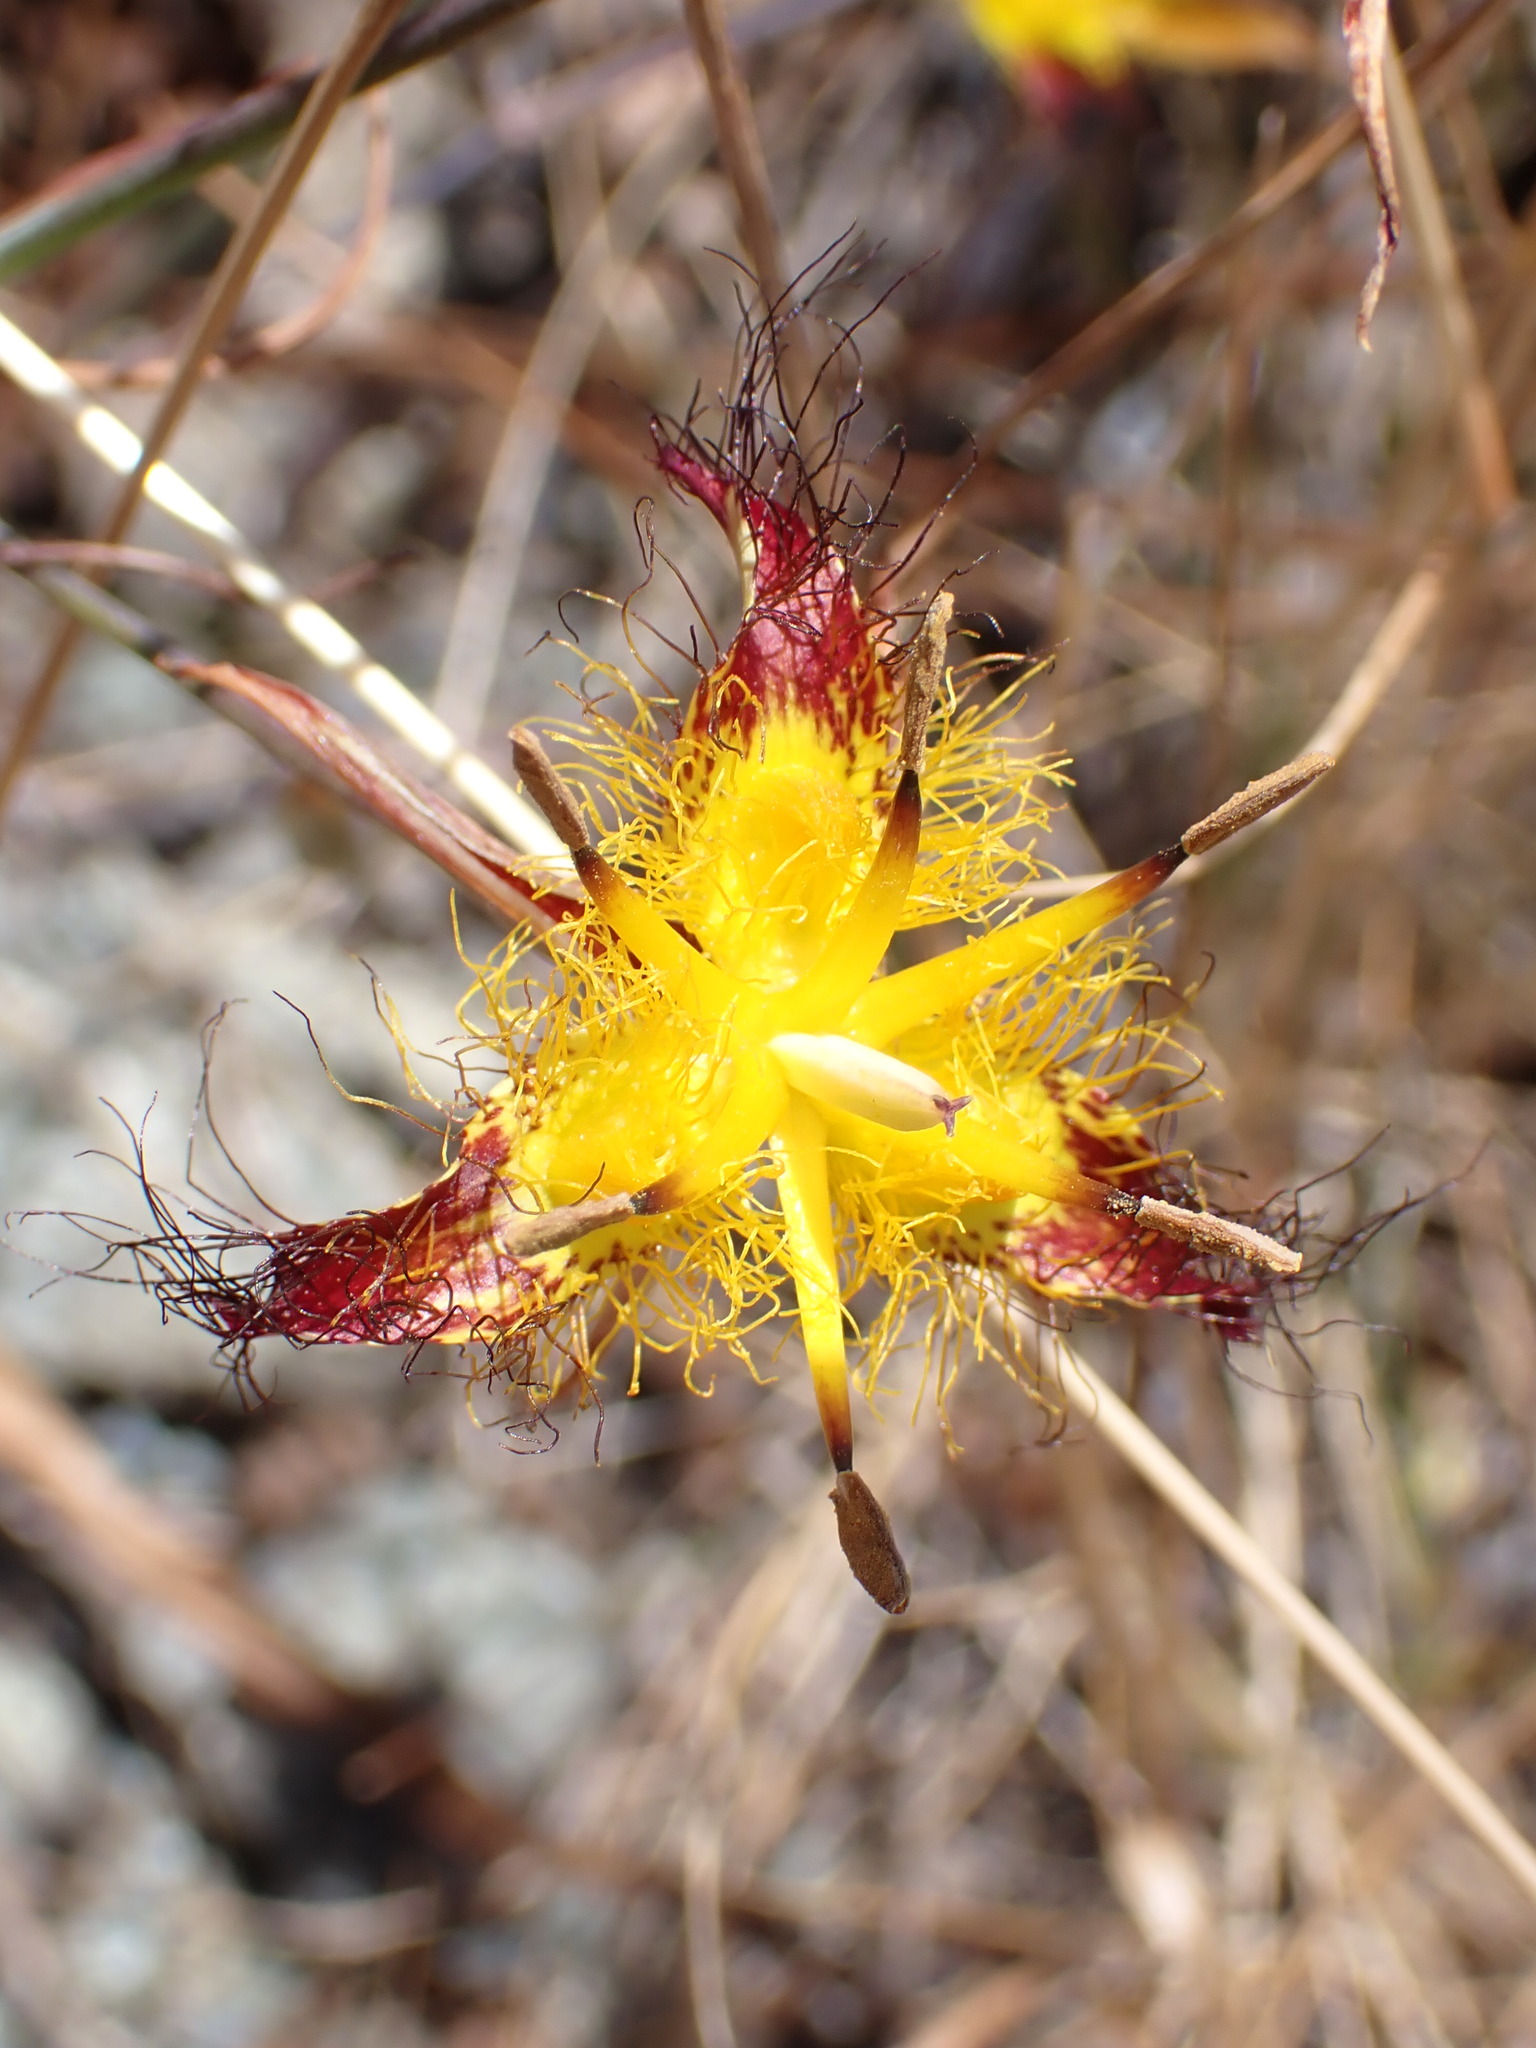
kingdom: Plantae
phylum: Tracheophyta
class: Liliopsida
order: Liliales
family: Liliaceae
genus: Calochortus
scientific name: Calochortus obispoensis
